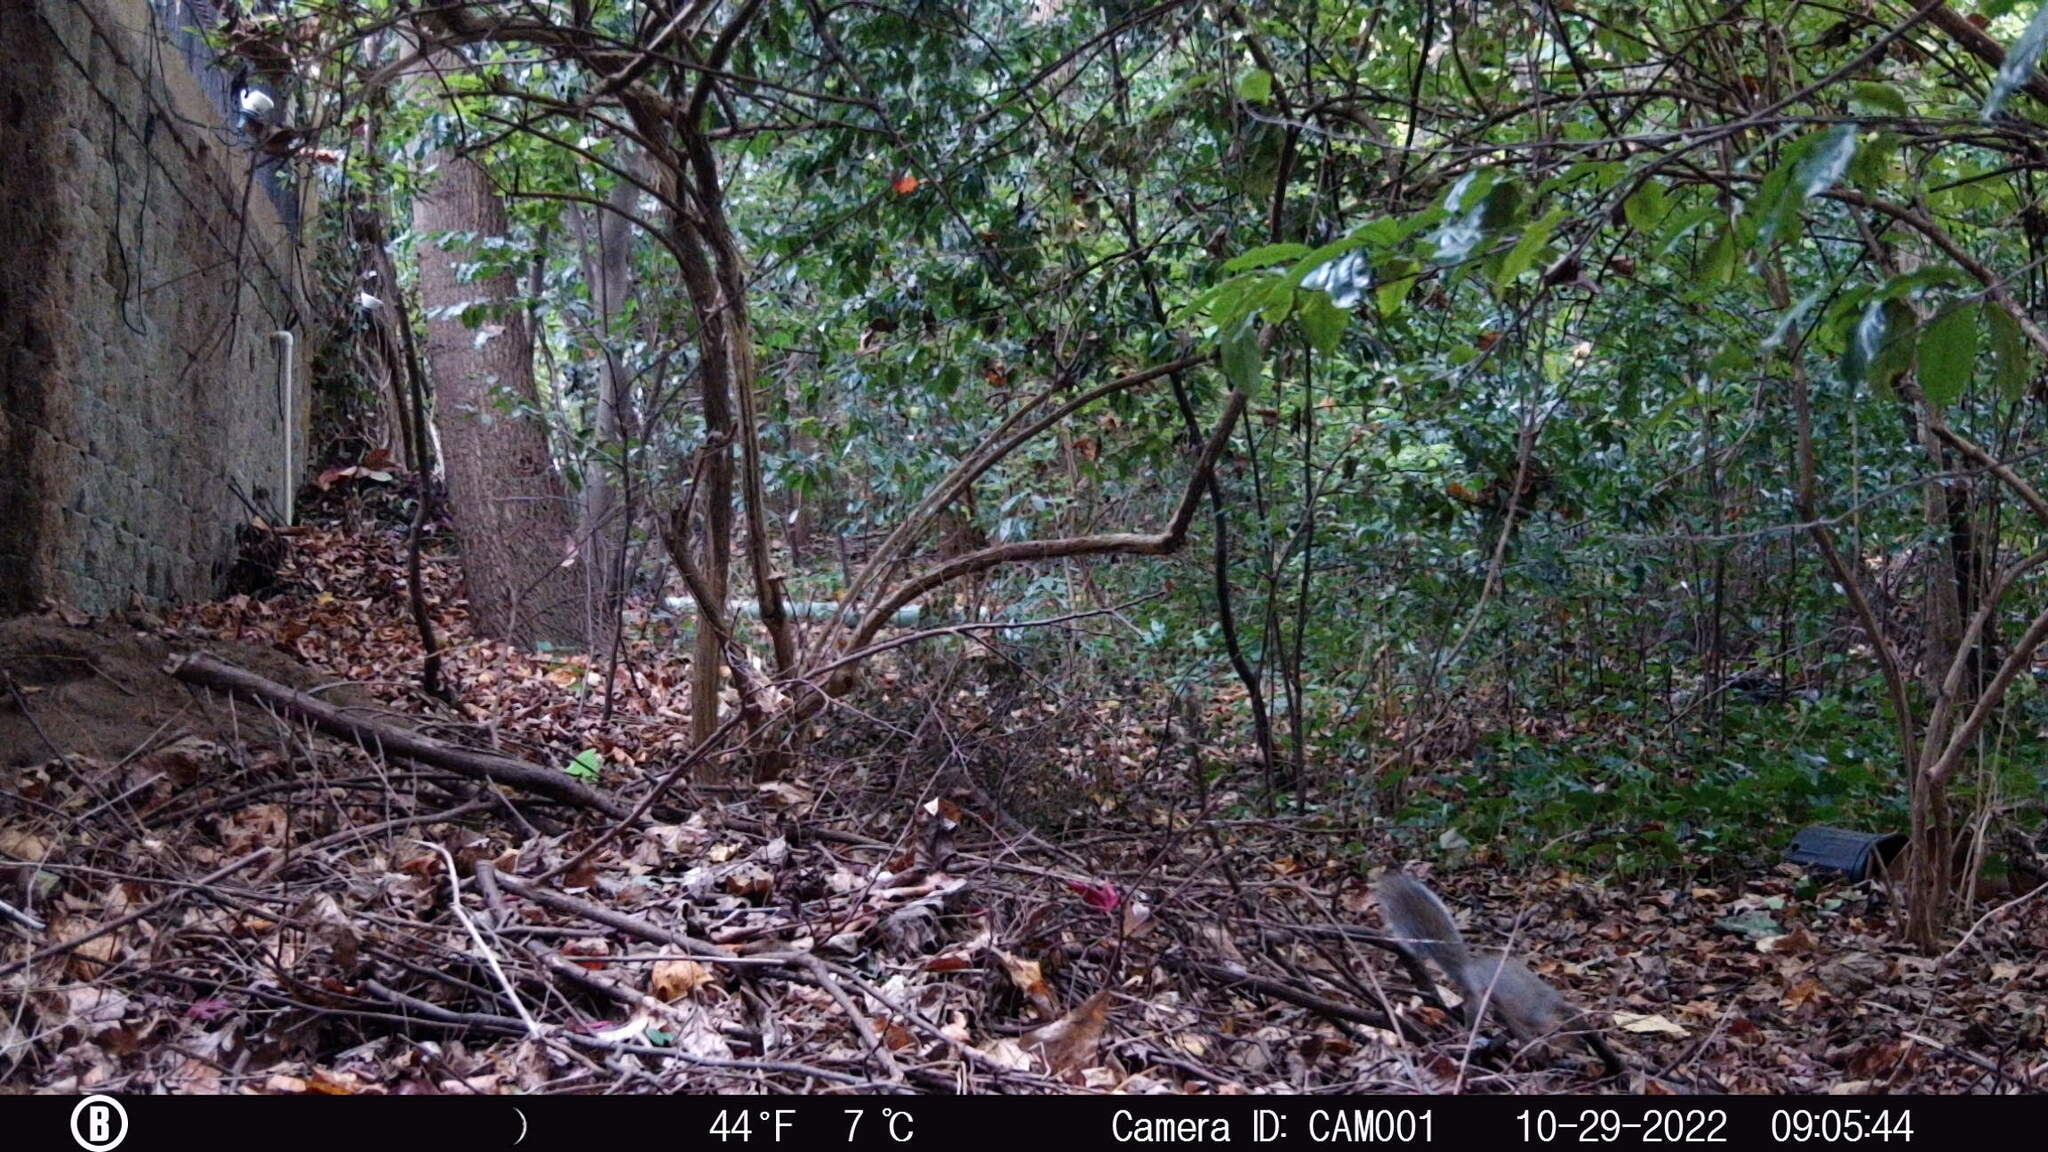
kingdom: Animalia
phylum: Chordata
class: Mammalia
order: Rodentia
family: Sciuridae
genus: Sciurus
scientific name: Sciurus carolinensis
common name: Eastern gray squirrel
